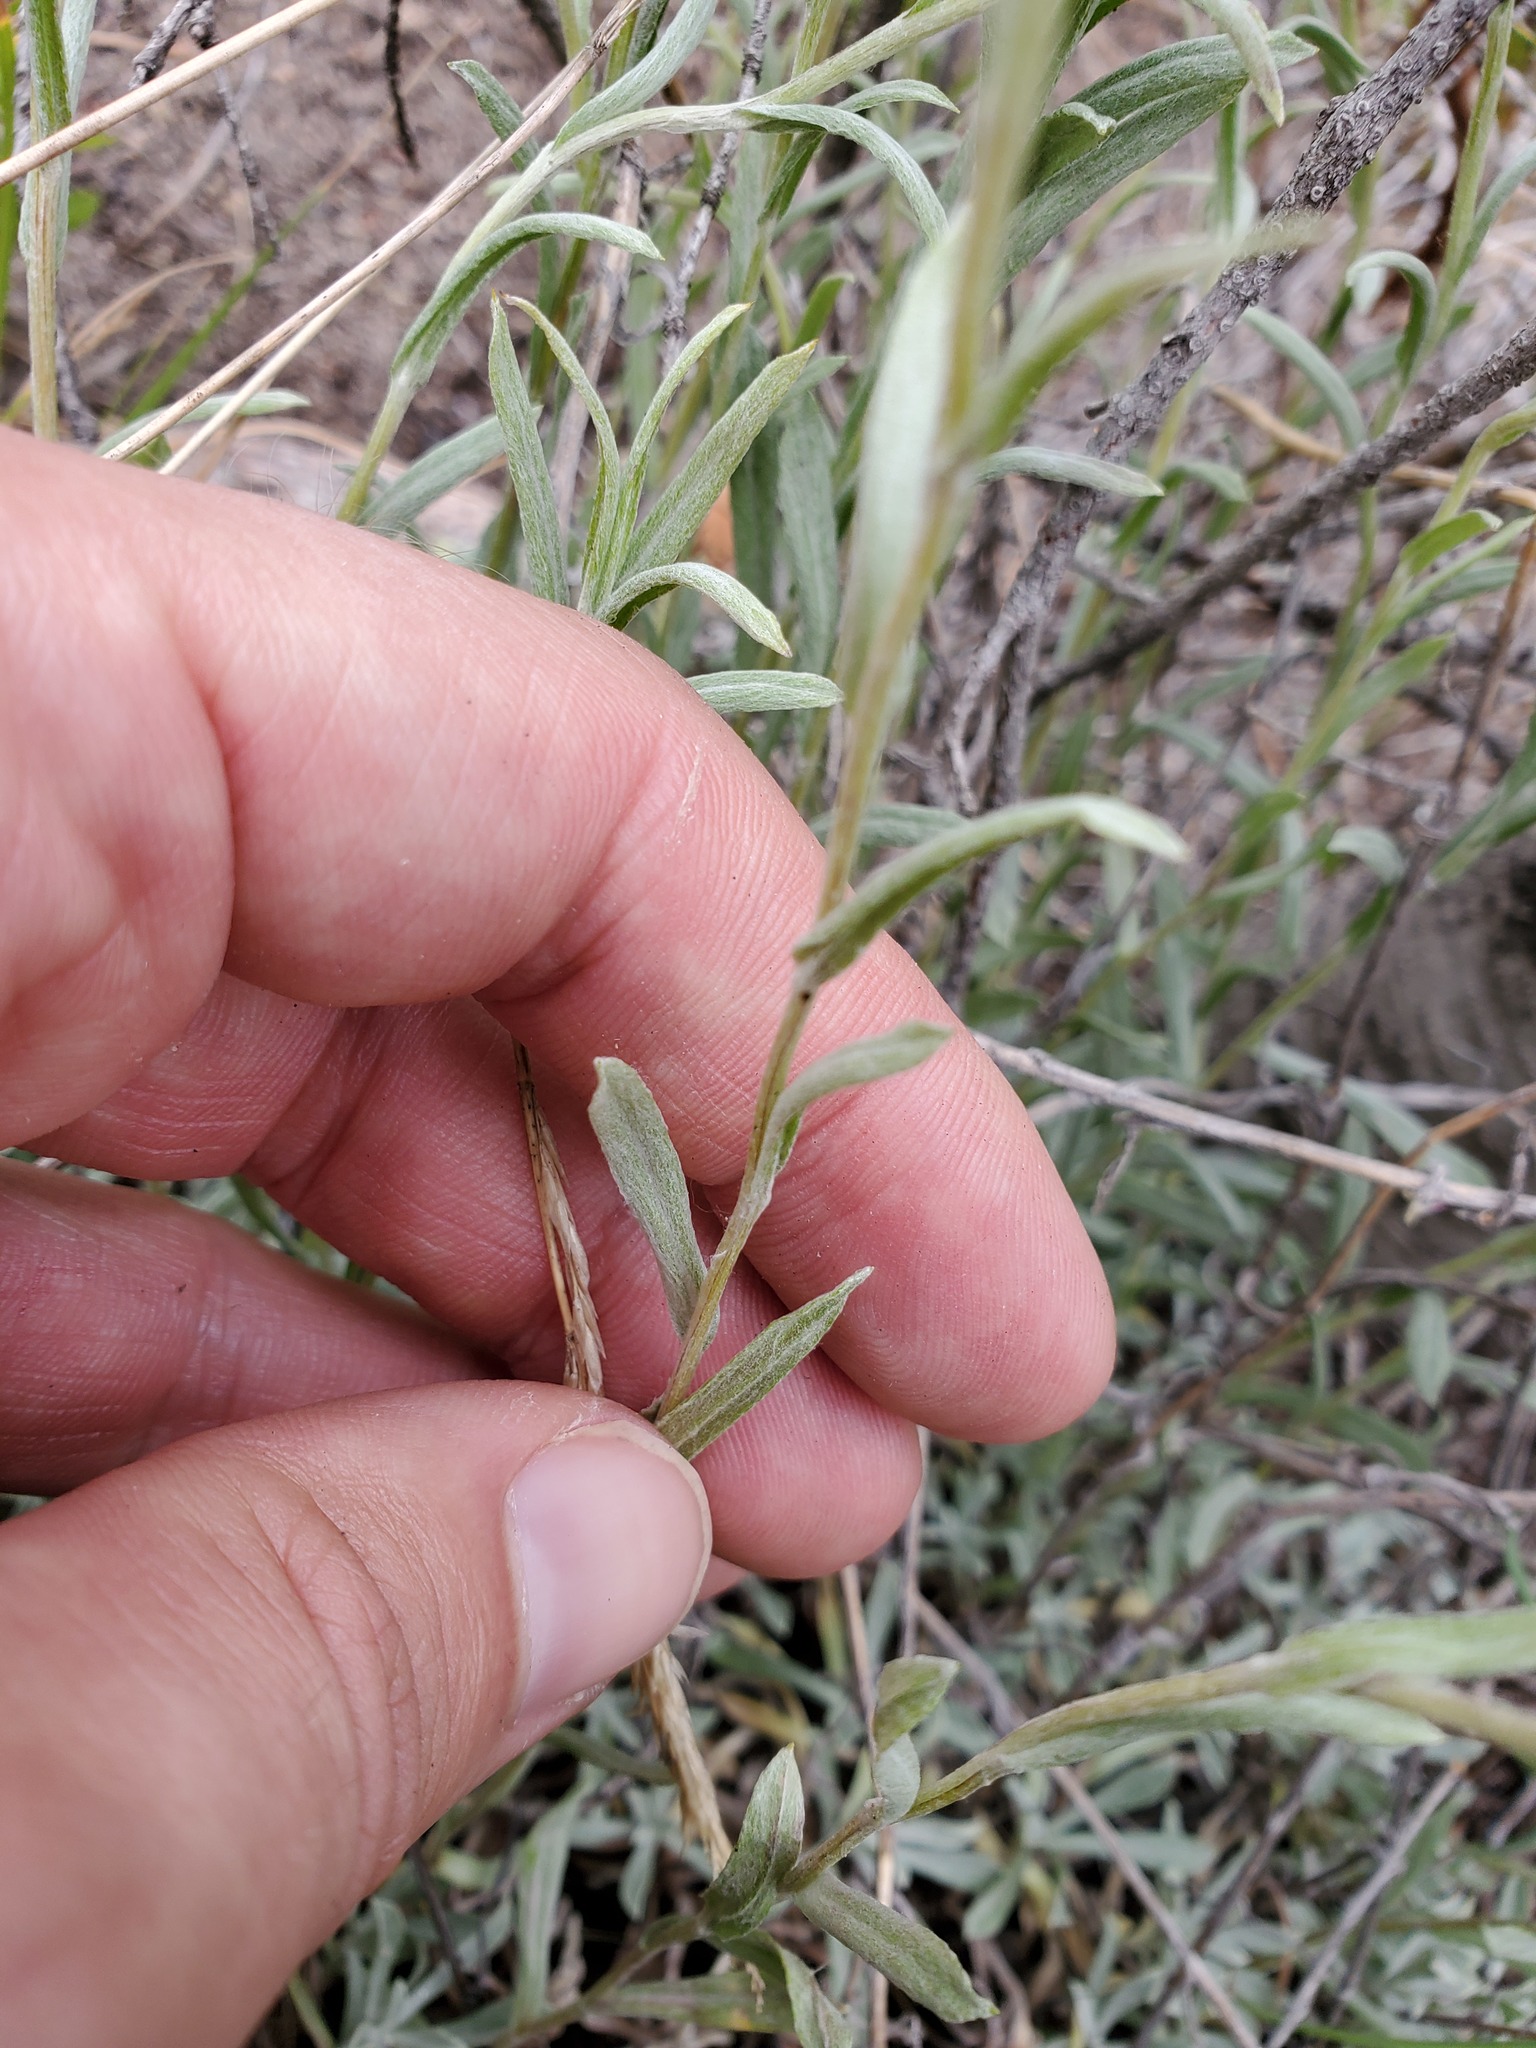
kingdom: Plantae
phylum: Tracheophyta
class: Magnoliopsida
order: Asterales
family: Asteraceae
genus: Antennaria
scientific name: Antennaria rosea
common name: Rosy pussytoes
